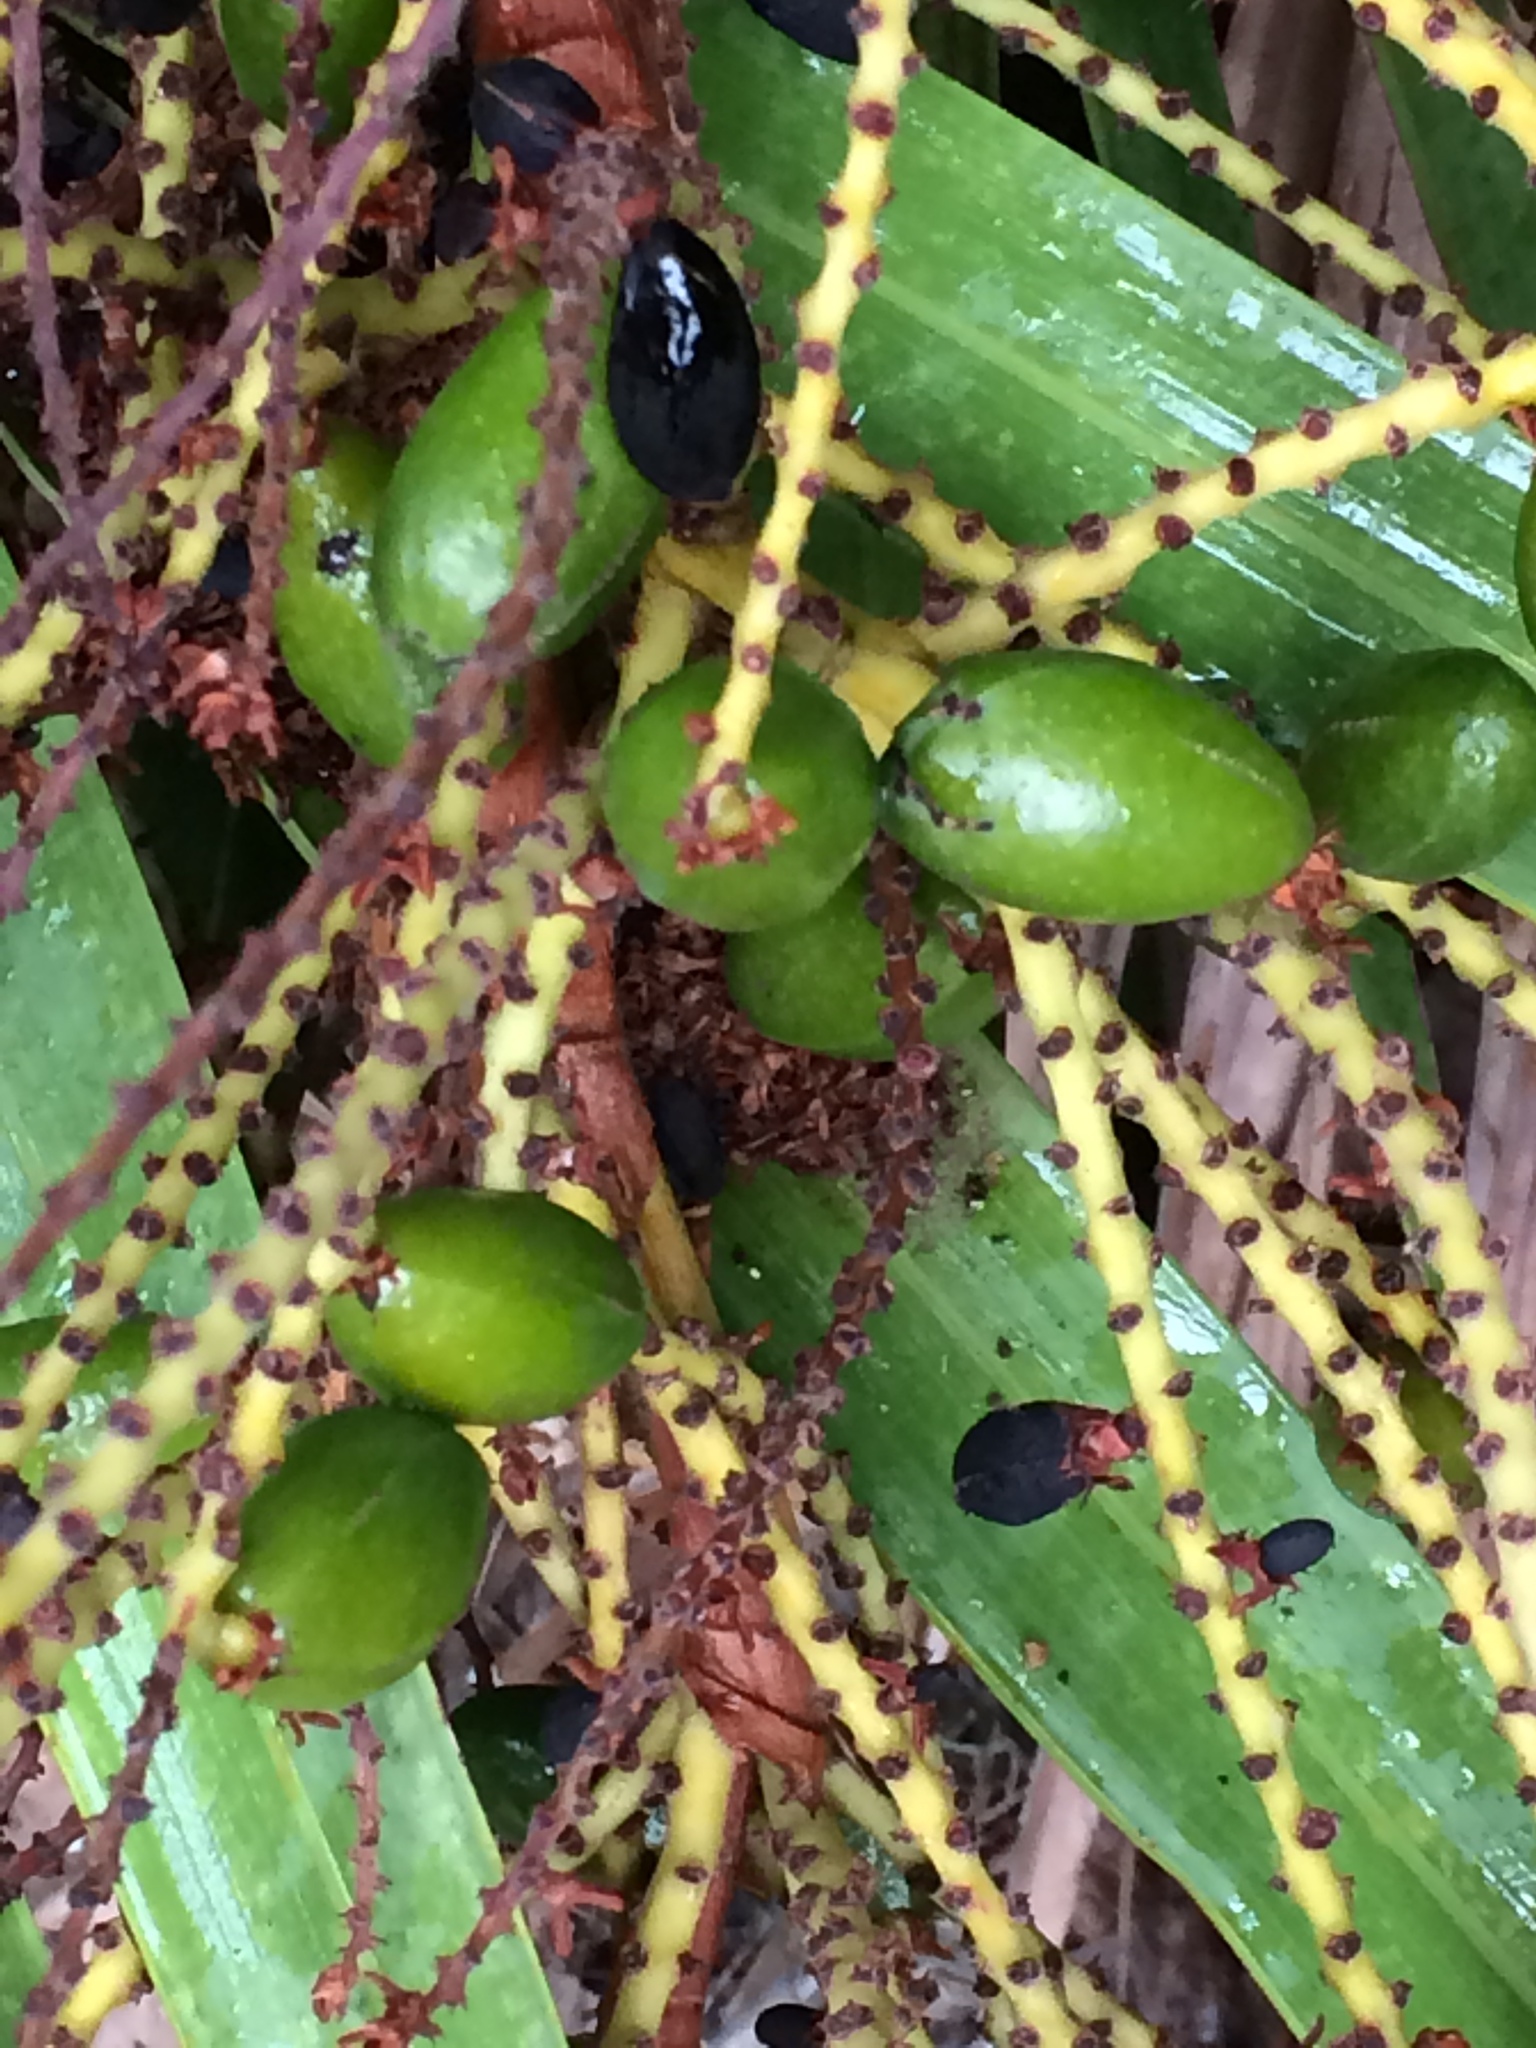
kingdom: Plantae
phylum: Tracheophyta
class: Liliopsida
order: Arecales
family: Arecaceae
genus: Serenoa
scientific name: Serenoa repens
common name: Saw-palmetto
